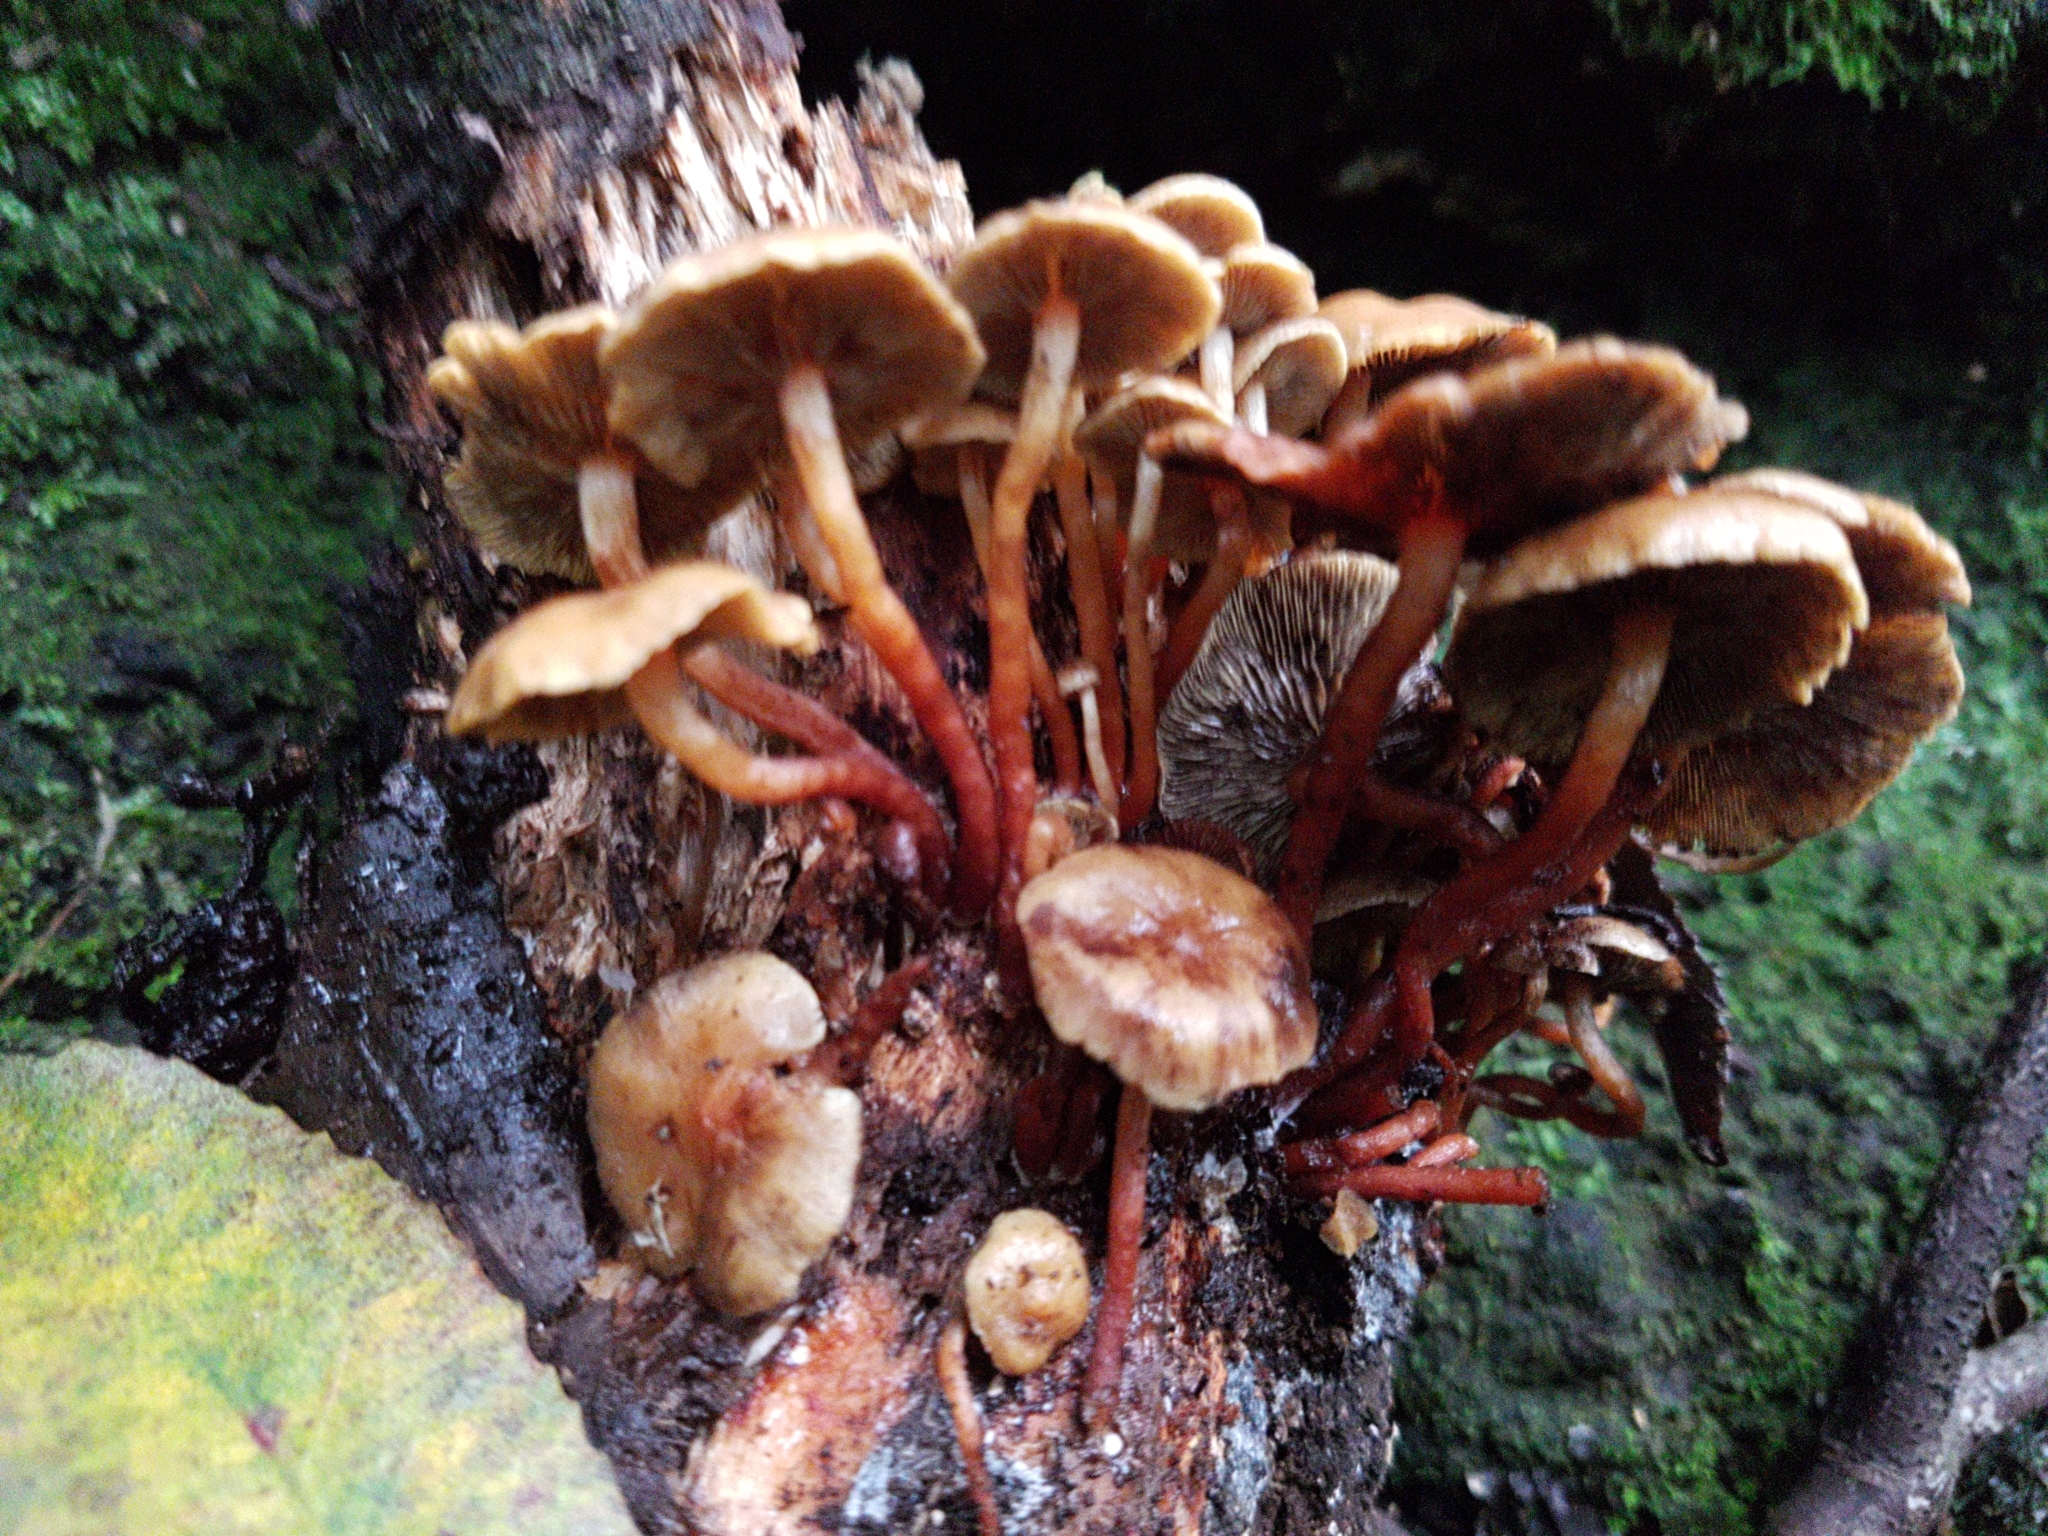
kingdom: Fungi
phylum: Basidiomycota
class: Agaricomycetes
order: Agaricales
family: Strophariaceae
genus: Hypholoma
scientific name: Hypholoma acutum
